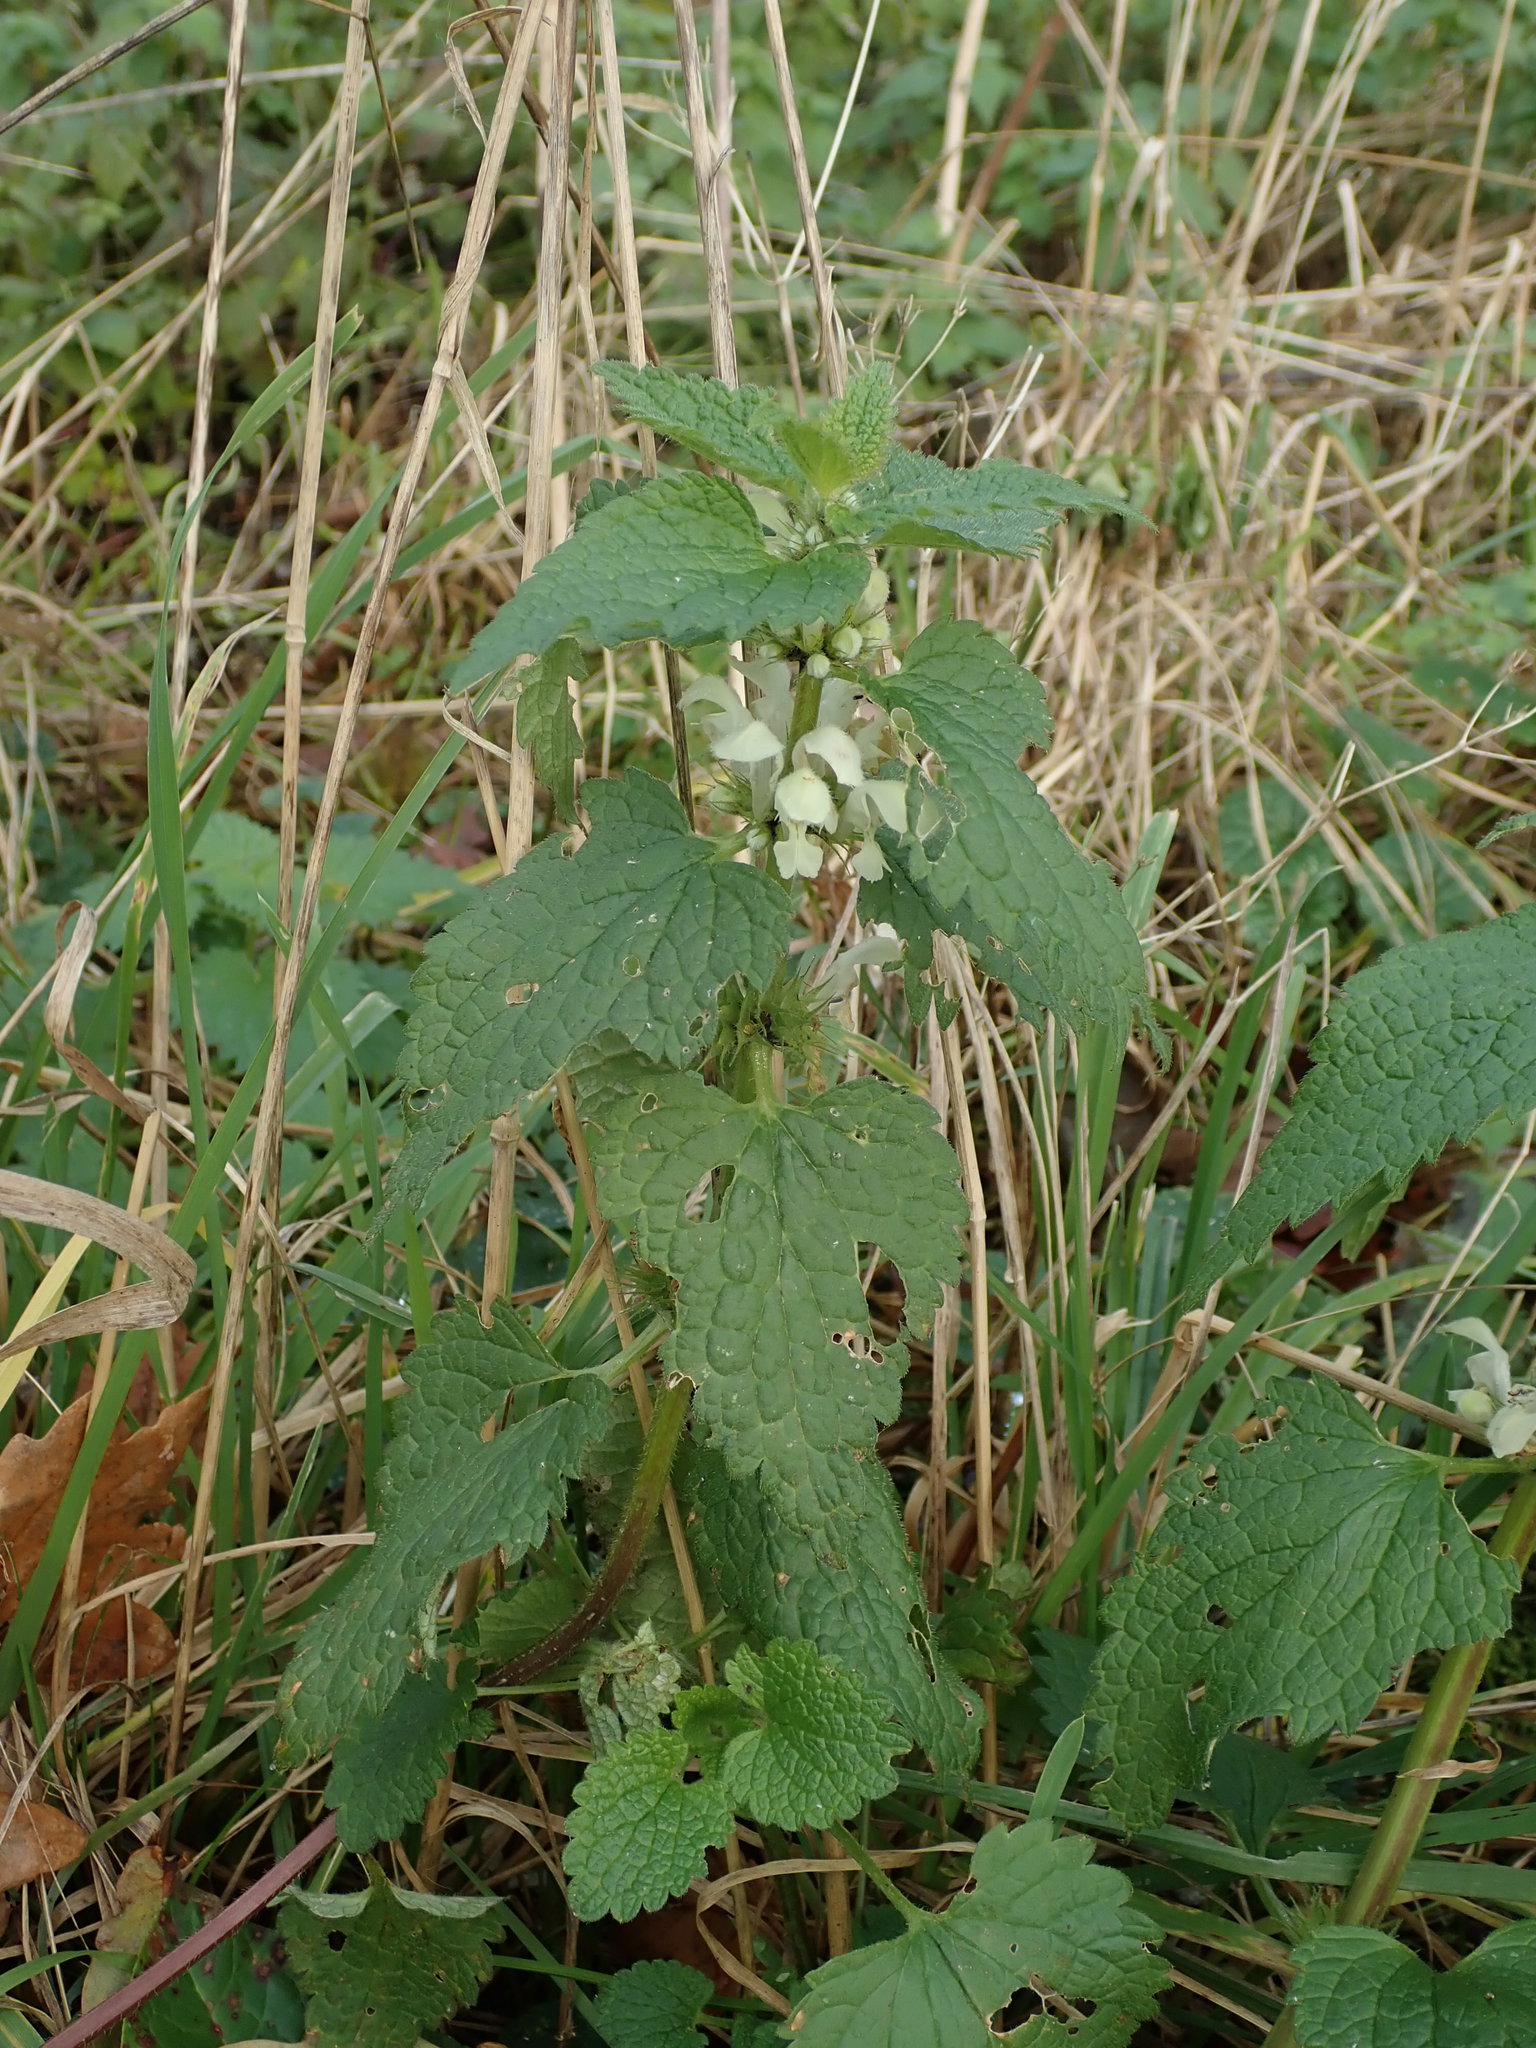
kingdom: Plantae
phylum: Tracheophyta
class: Magnoliopsida
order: Lamiales
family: Lamiaceae
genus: Lamium
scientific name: Lamium album
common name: White dead-nettle
